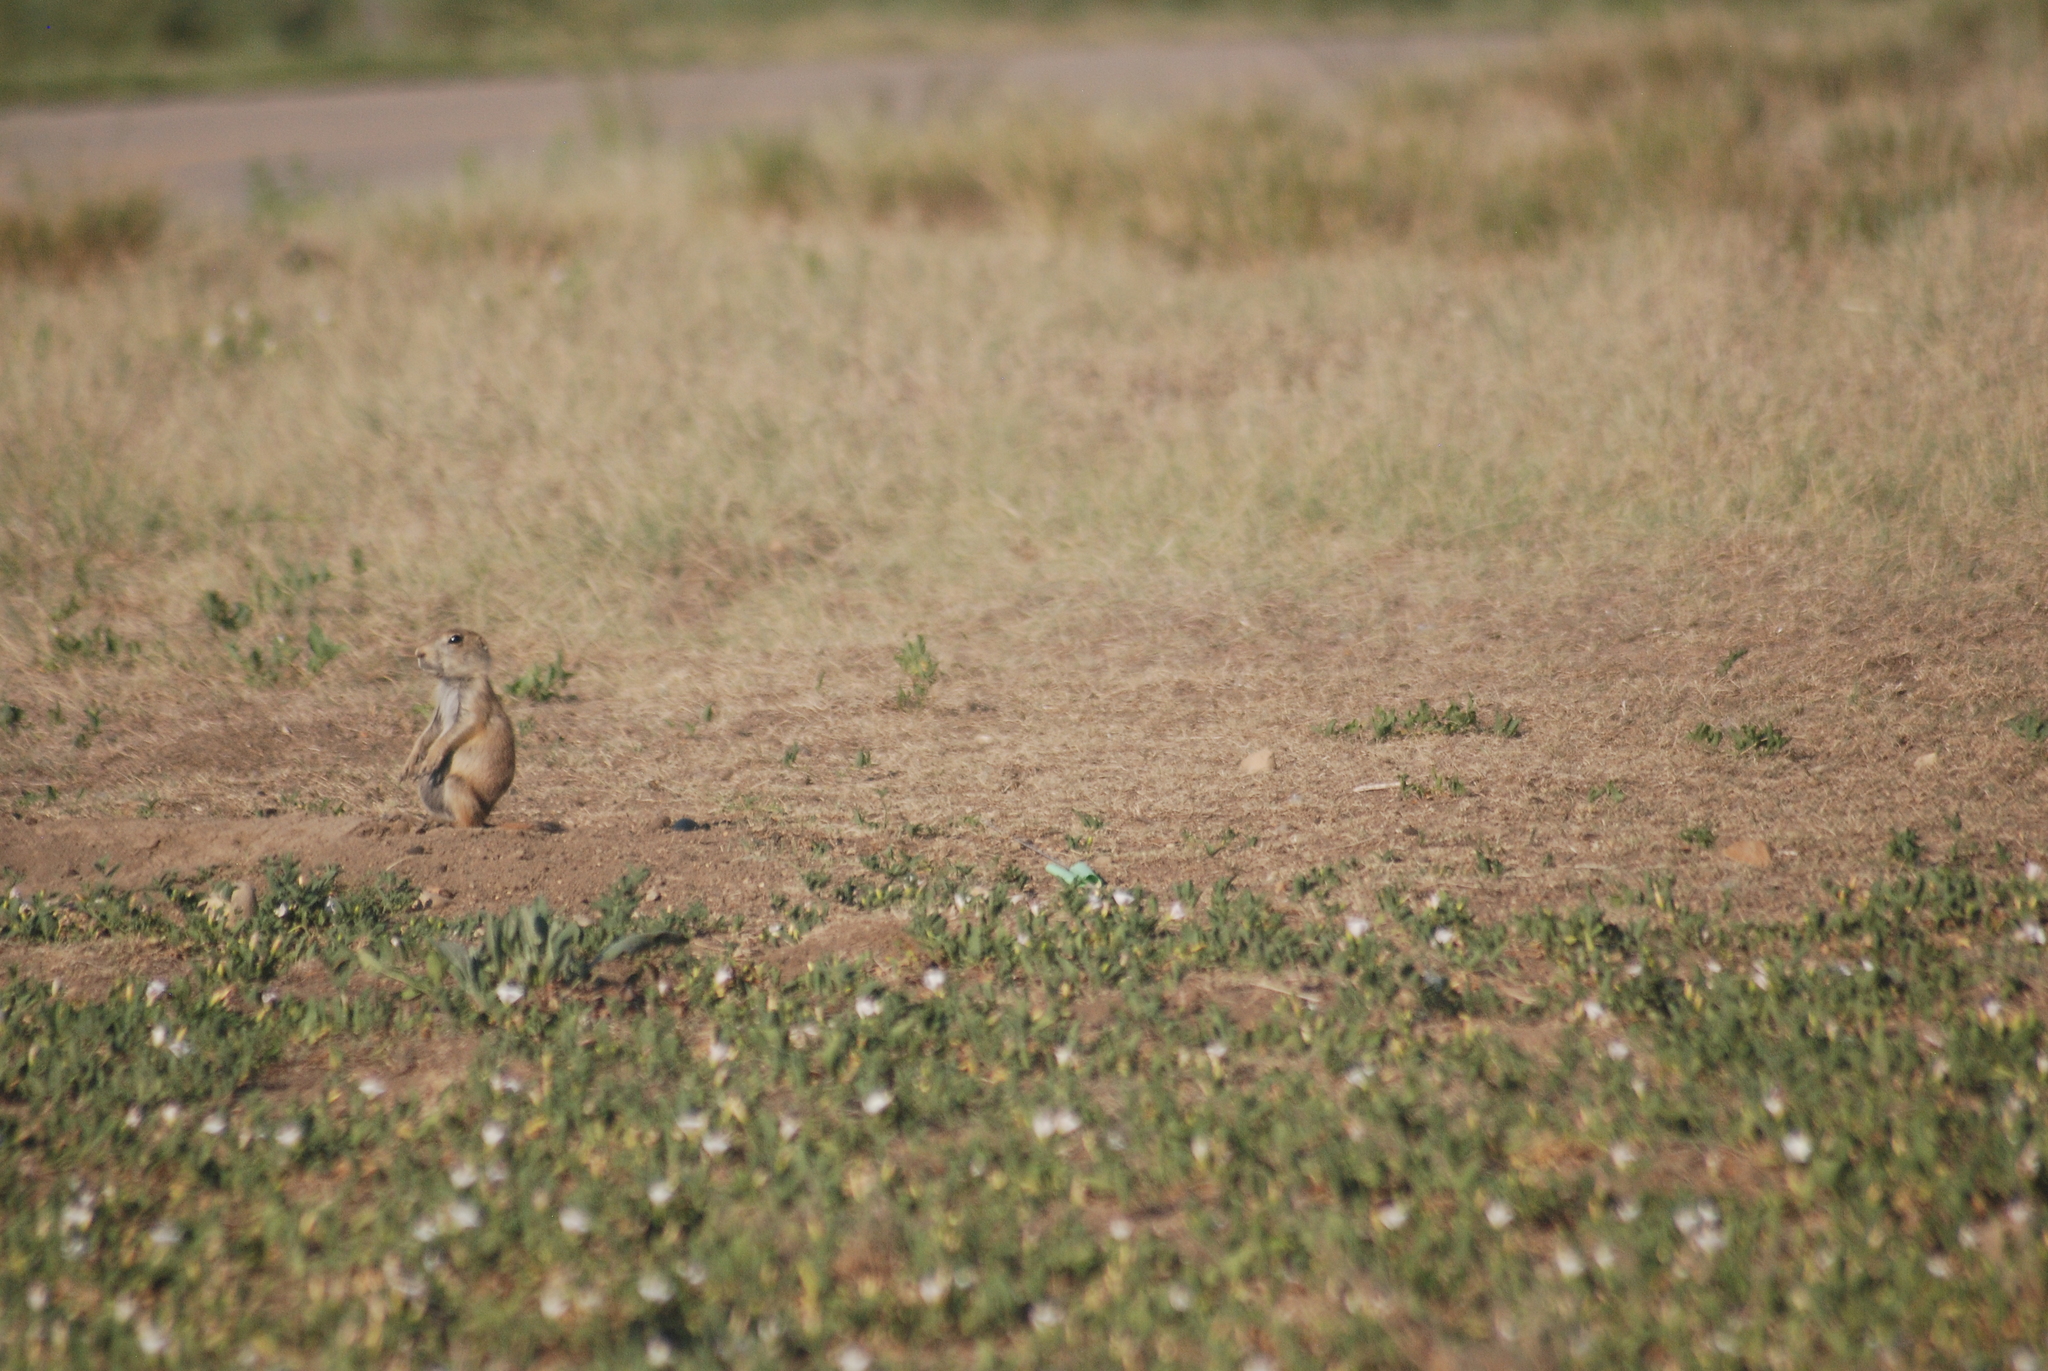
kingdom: Animalia
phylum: Chordata
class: Mammalia
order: Rodentia
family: Sciuridae
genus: Cynomys
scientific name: Cynomys ludovicianus
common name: Black-tailed prairie dog
